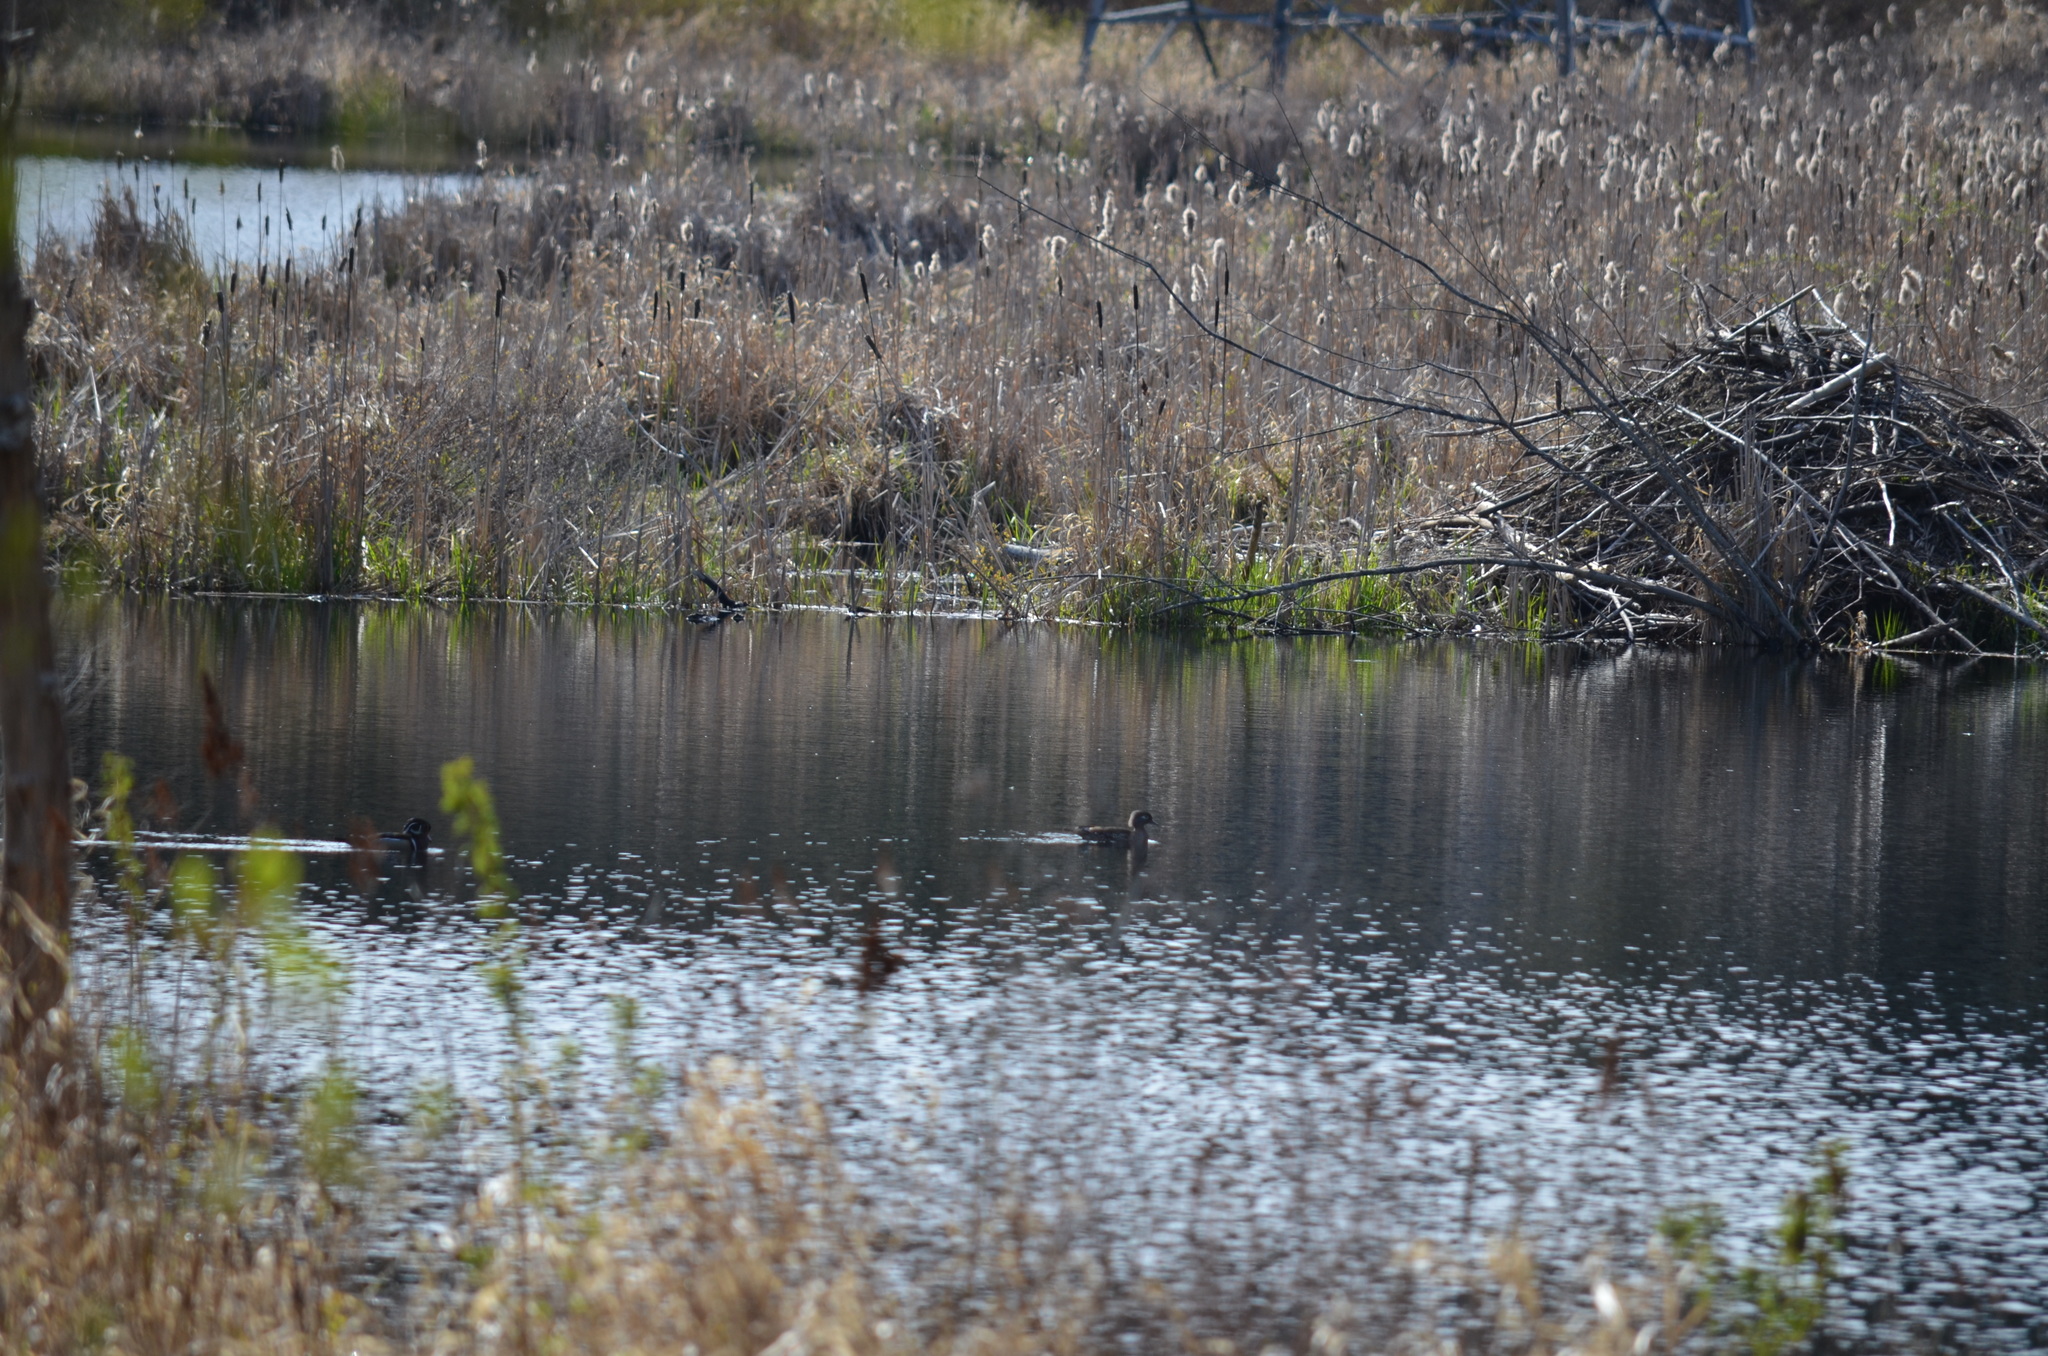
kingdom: Animalia
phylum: Chordata
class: Aves
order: Anseriformes
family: Anatidae
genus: Aix
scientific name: Aix sponsa
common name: Wood duck
